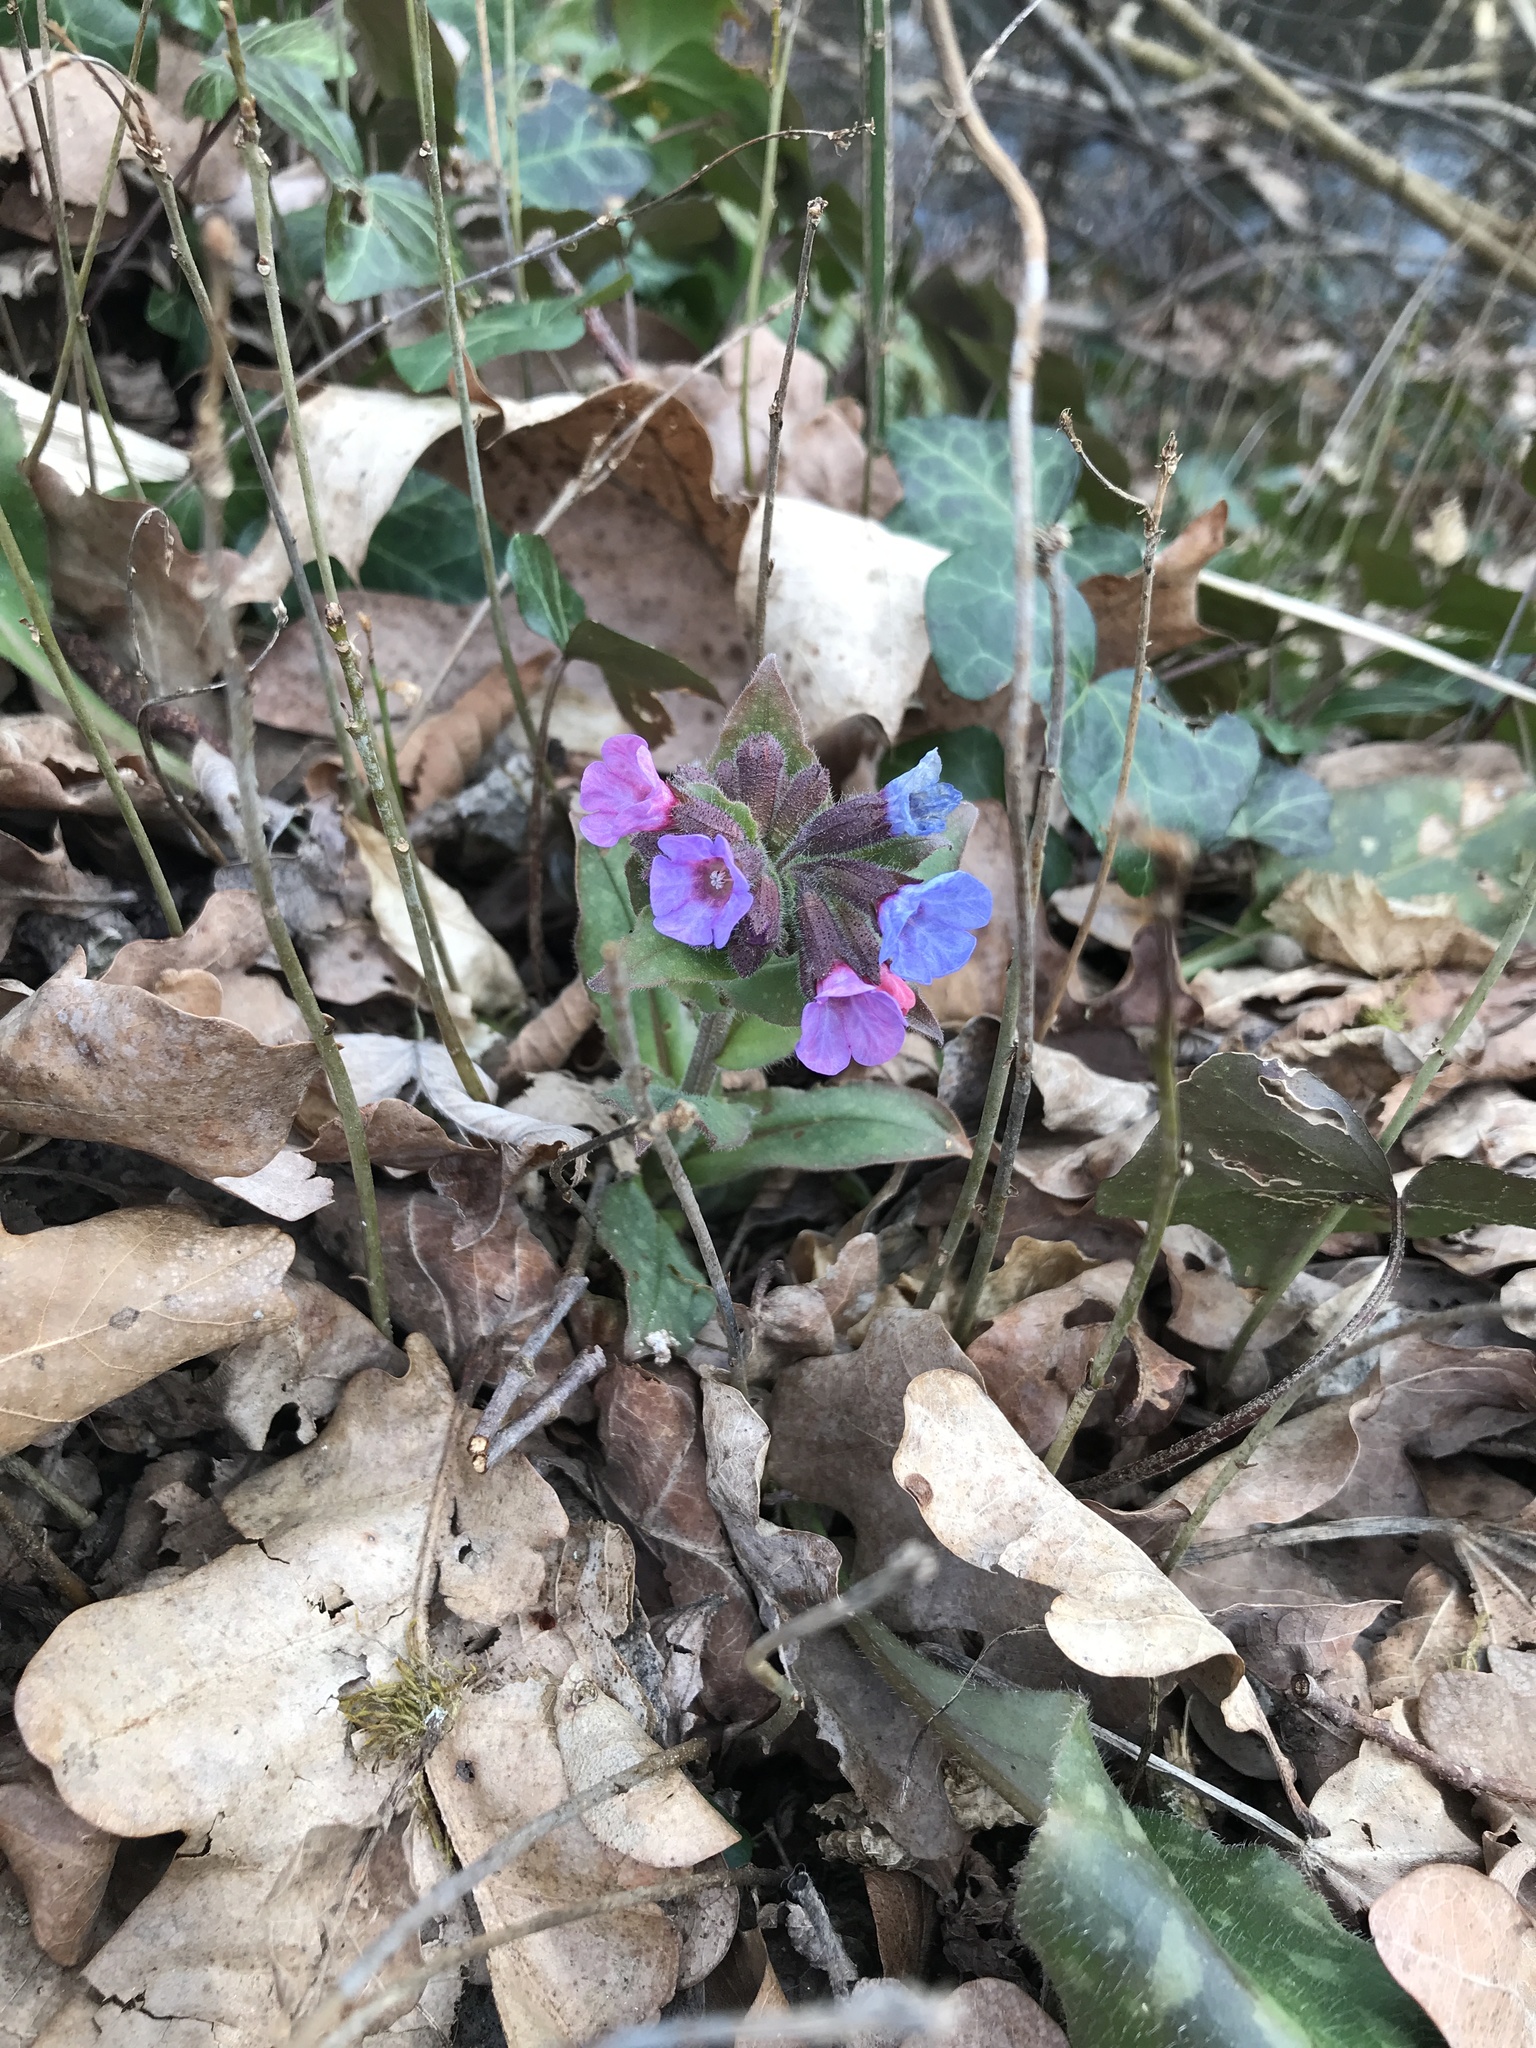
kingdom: Plantae
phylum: Tracheophyta
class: Magnoliopsida
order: Boraginales
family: Boraginaceae
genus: Pulmonaria
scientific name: Pulmonaria officinalis
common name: Lungwort
